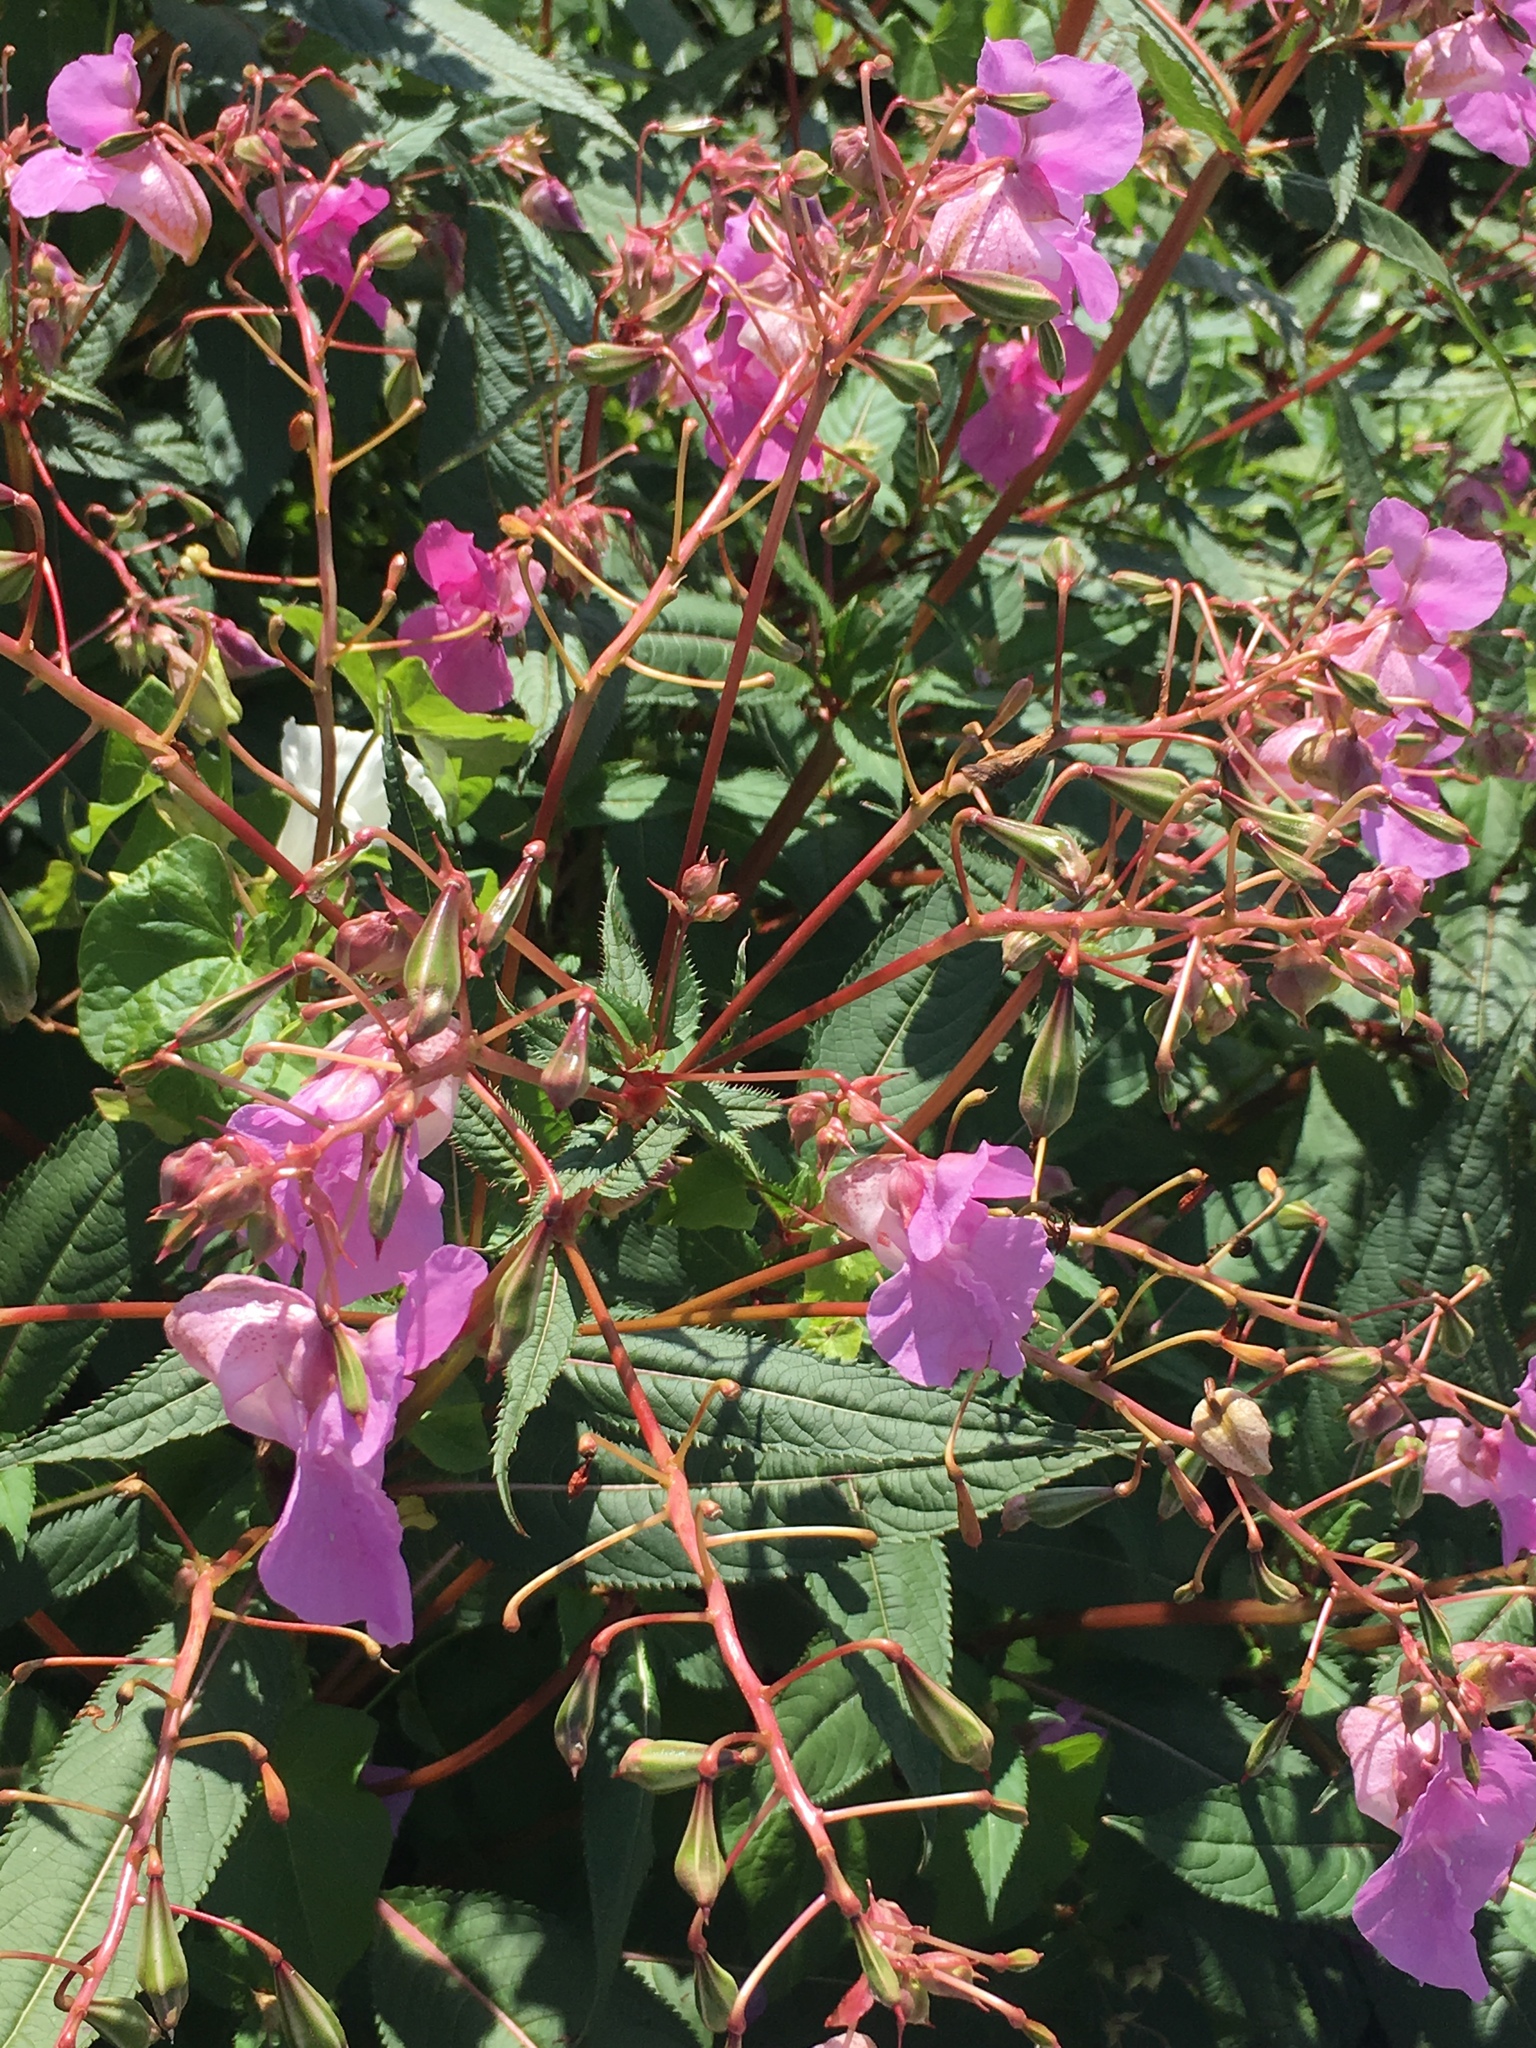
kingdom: Plantae
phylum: Tracheophyta
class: Magnoliopsida
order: Ericales
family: Balsaminaceae
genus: Impatiens
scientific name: Impatiens glandulifera
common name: Himalayan balsam
